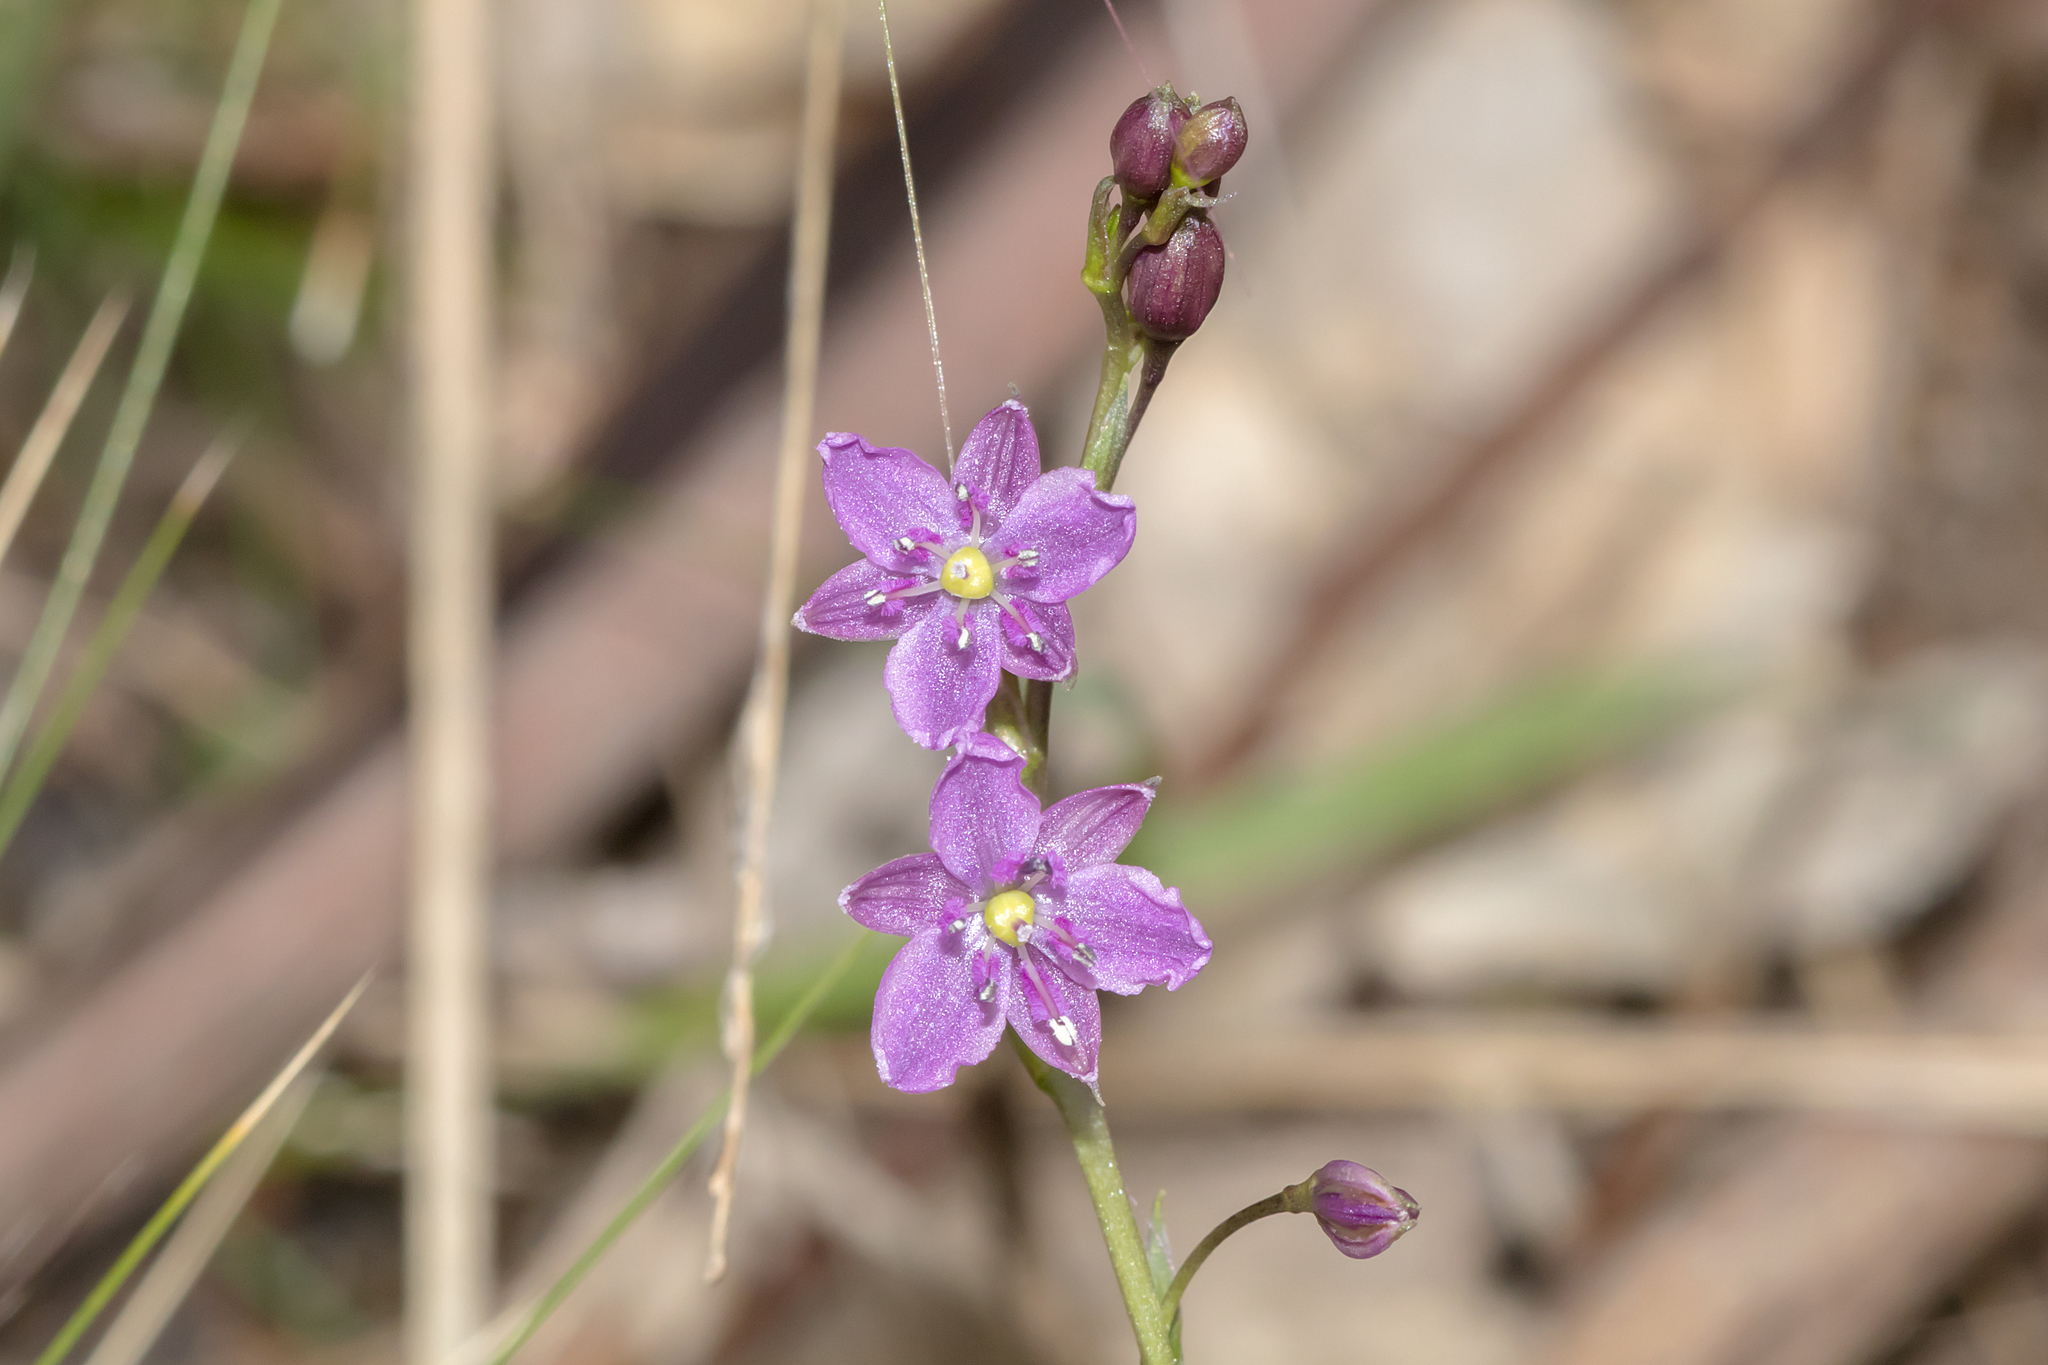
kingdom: Plantae
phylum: Tracheophyta
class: Liliopsida
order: Asparagales
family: Asparagaceae
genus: Arthropodium
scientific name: Arthropodium minus
